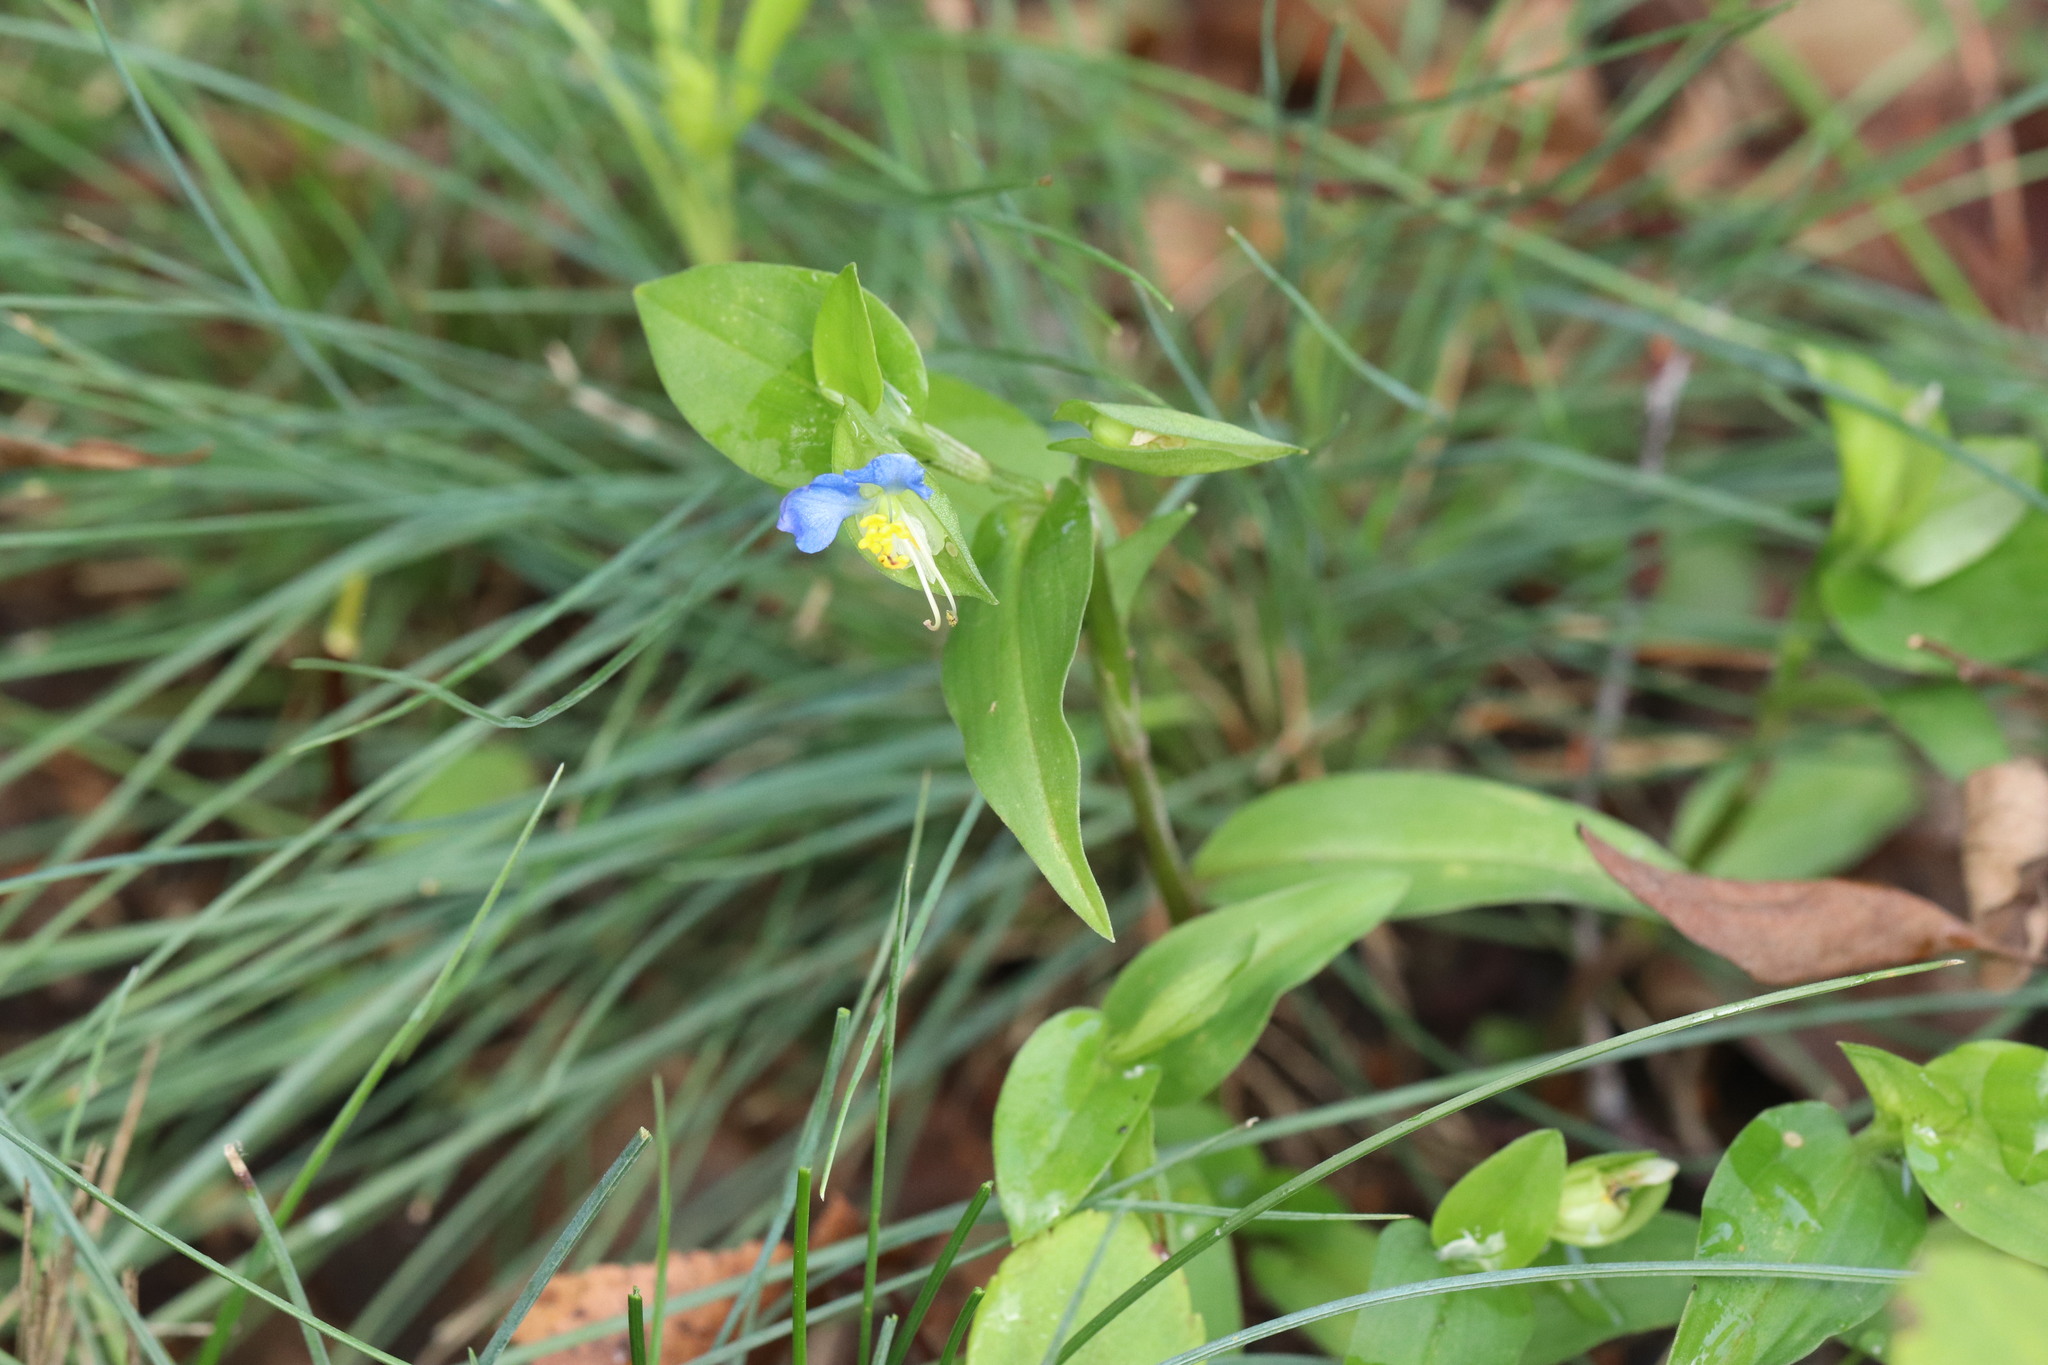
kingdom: Plantae
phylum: Tracheophyta
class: Liliopsida
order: Commelinales
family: Commelinaceae
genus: Commelina
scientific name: Commelina communis
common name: Asiatic dayflower
